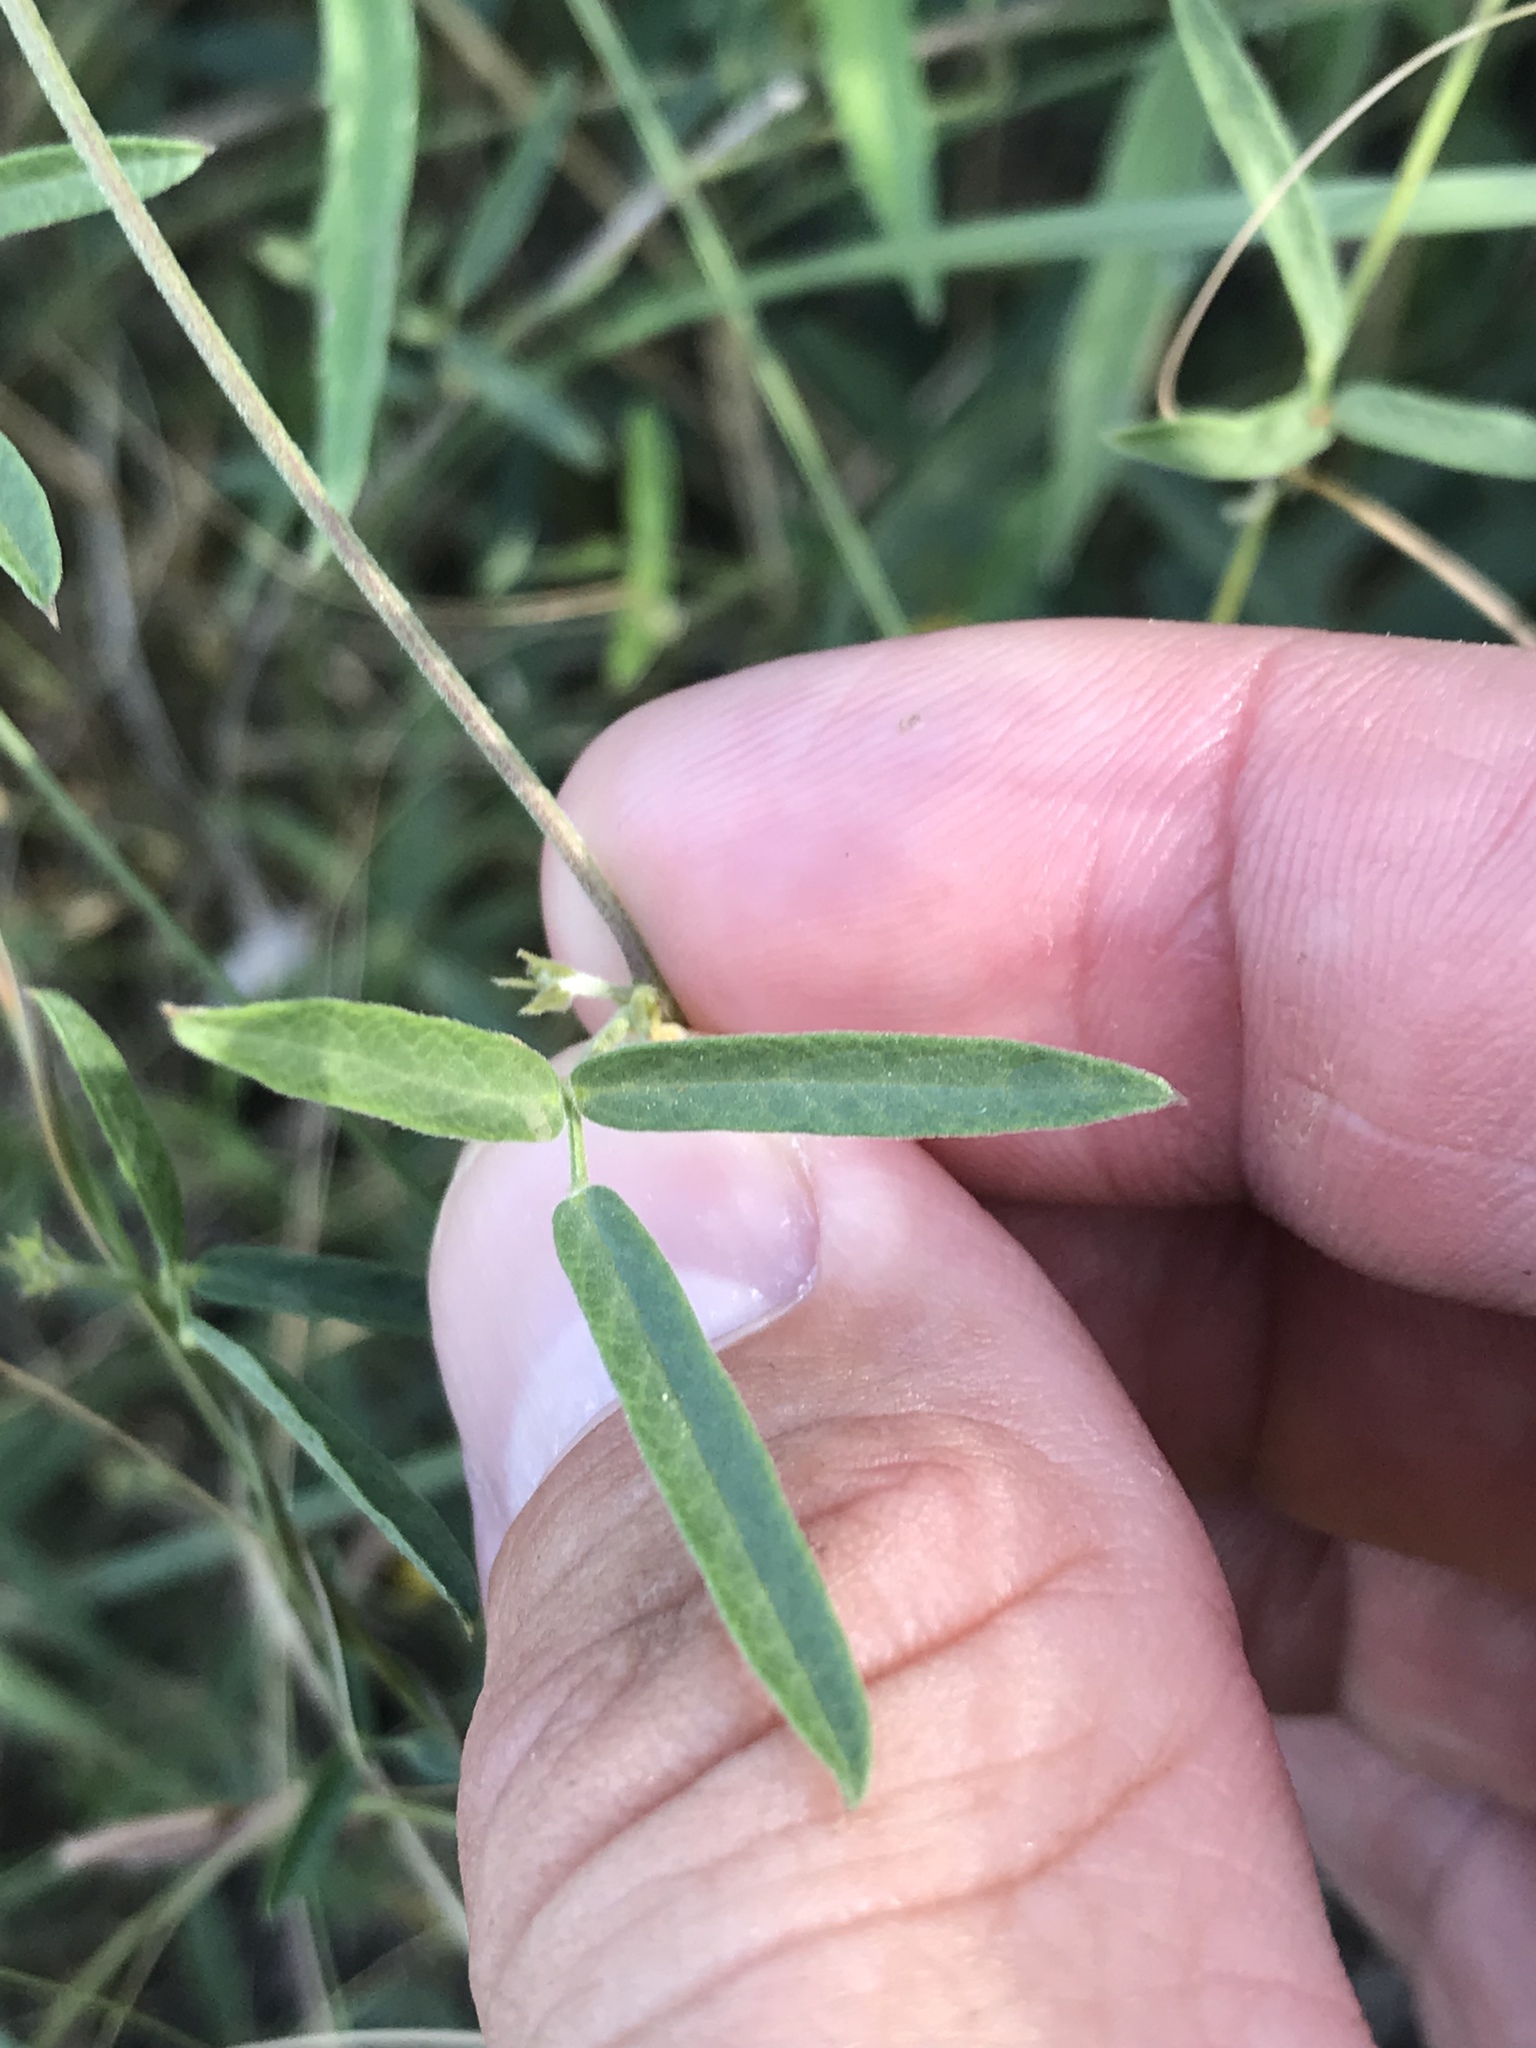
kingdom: Plantae
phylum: Tracheophyta
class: Magnoliopsida
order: Fabales
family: Fabaceae
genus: Stylosanthes
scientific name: Stylosanthes biflora
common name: Two-flower pencil-flower
